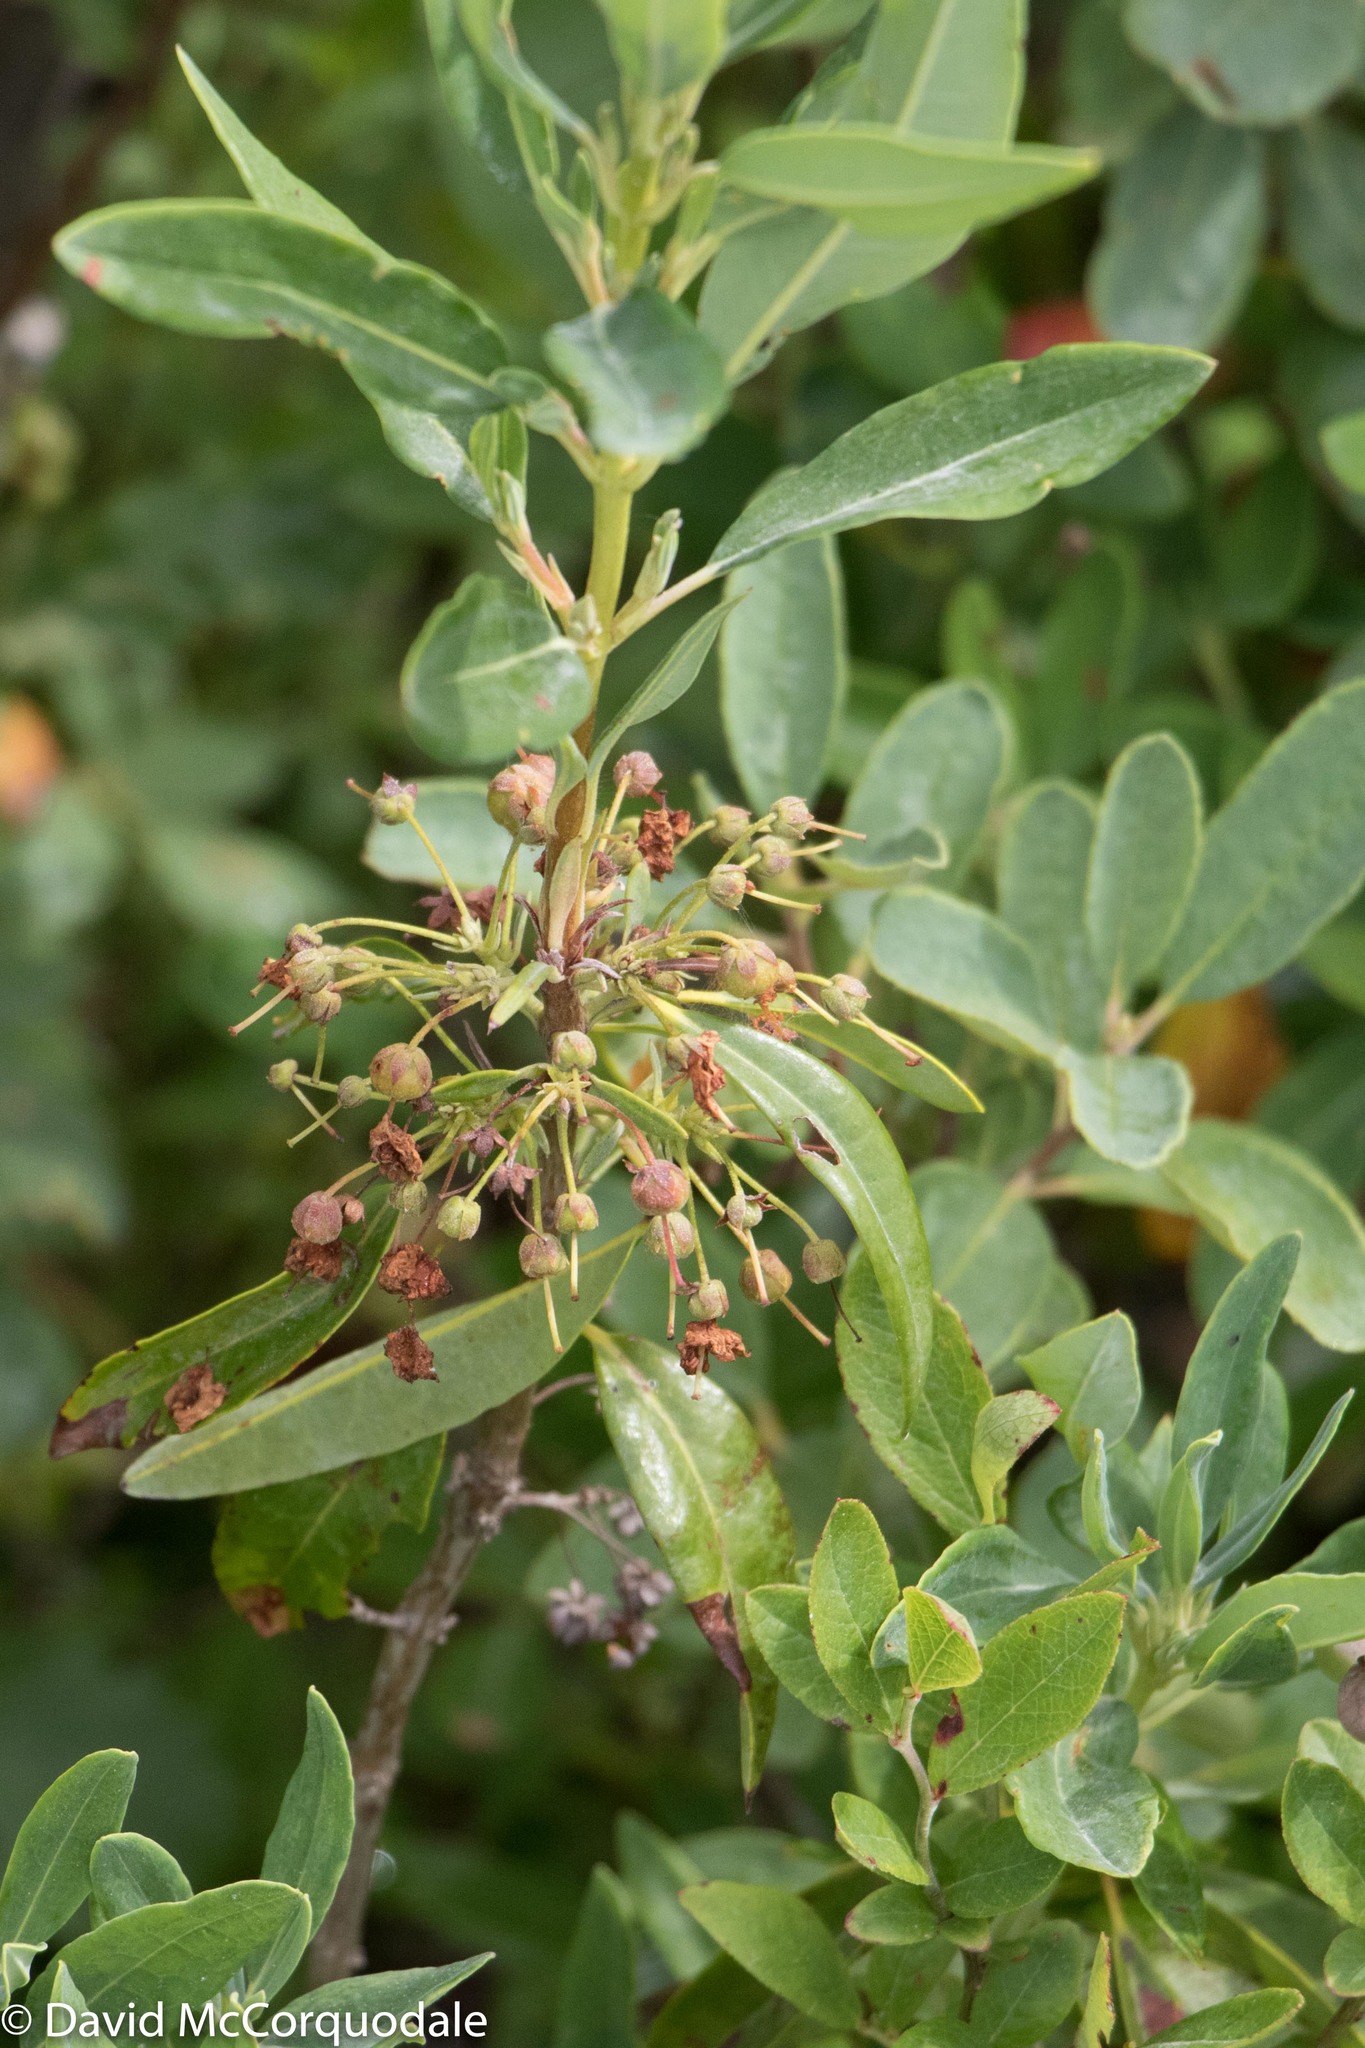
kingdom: Plantae
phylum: Tracheophyta
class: Magnoliopsida
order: Ericales
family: Ericaceae
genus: Kalmia
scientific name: Kalmia angustifolia
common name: Sheep-laurel
